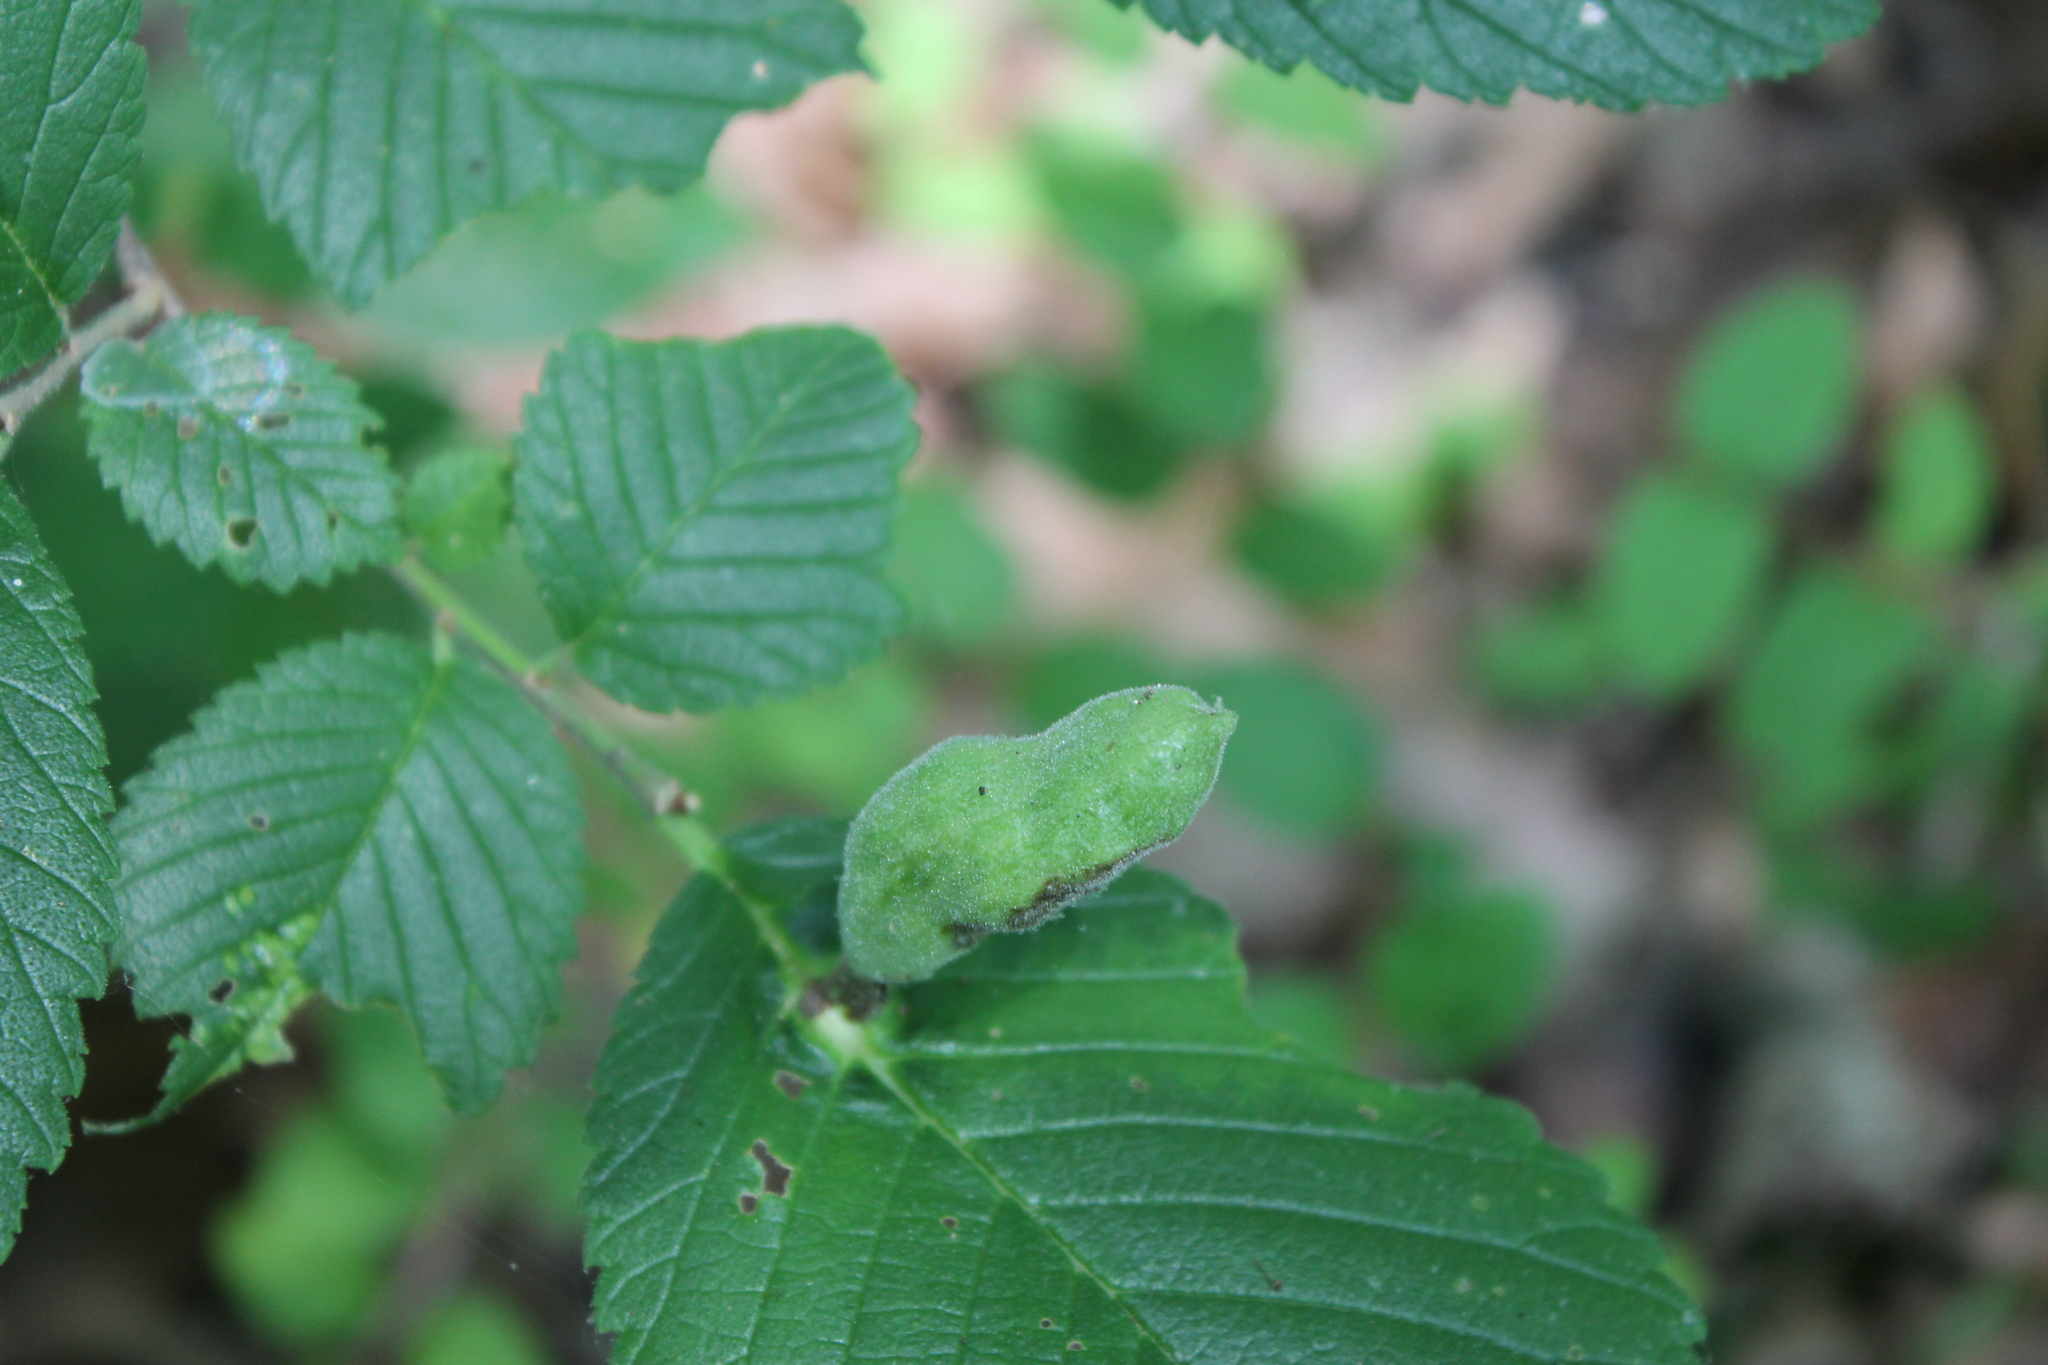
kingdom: Animalia
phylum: Arthropoda
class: Insecta
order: Hemiptera
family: Aphididae
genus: Kaltenbachiella
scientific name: Kaltenbachiella ulmifusa
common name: Elm pouchgall aphid
